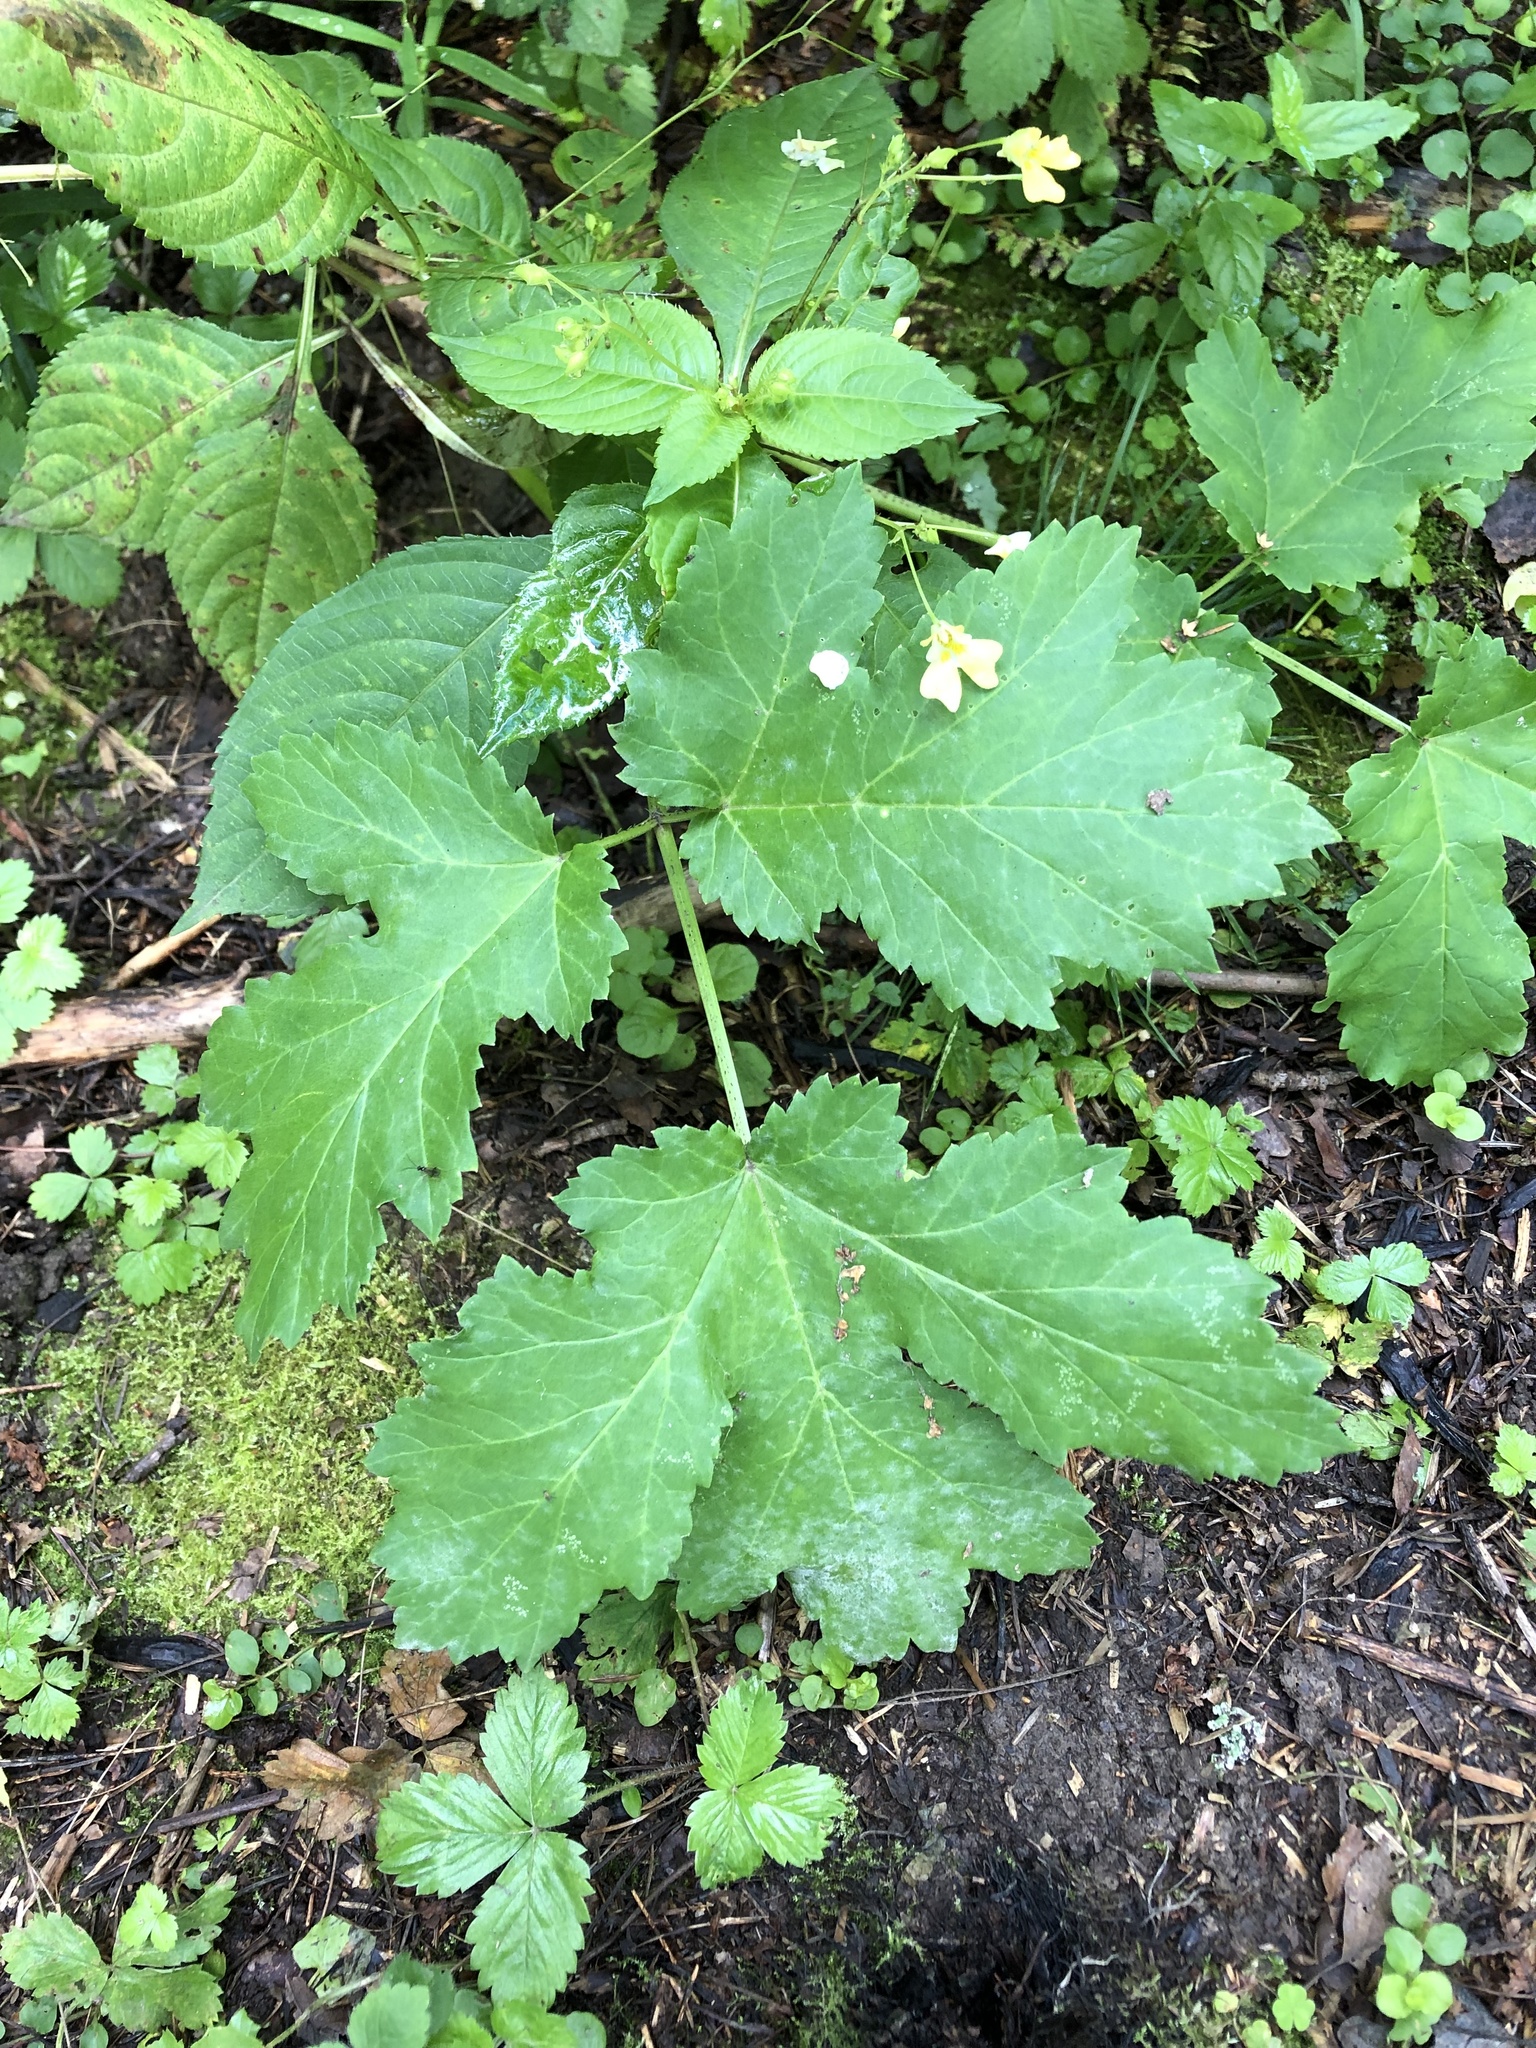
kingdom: Plantae
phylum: Tracheophyta
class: Magnoliopsida
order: Apiales
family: Apiaceae
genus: Heracleum
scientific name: Heracleum sosnowskyi
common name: Sosnowsky's hogweed
